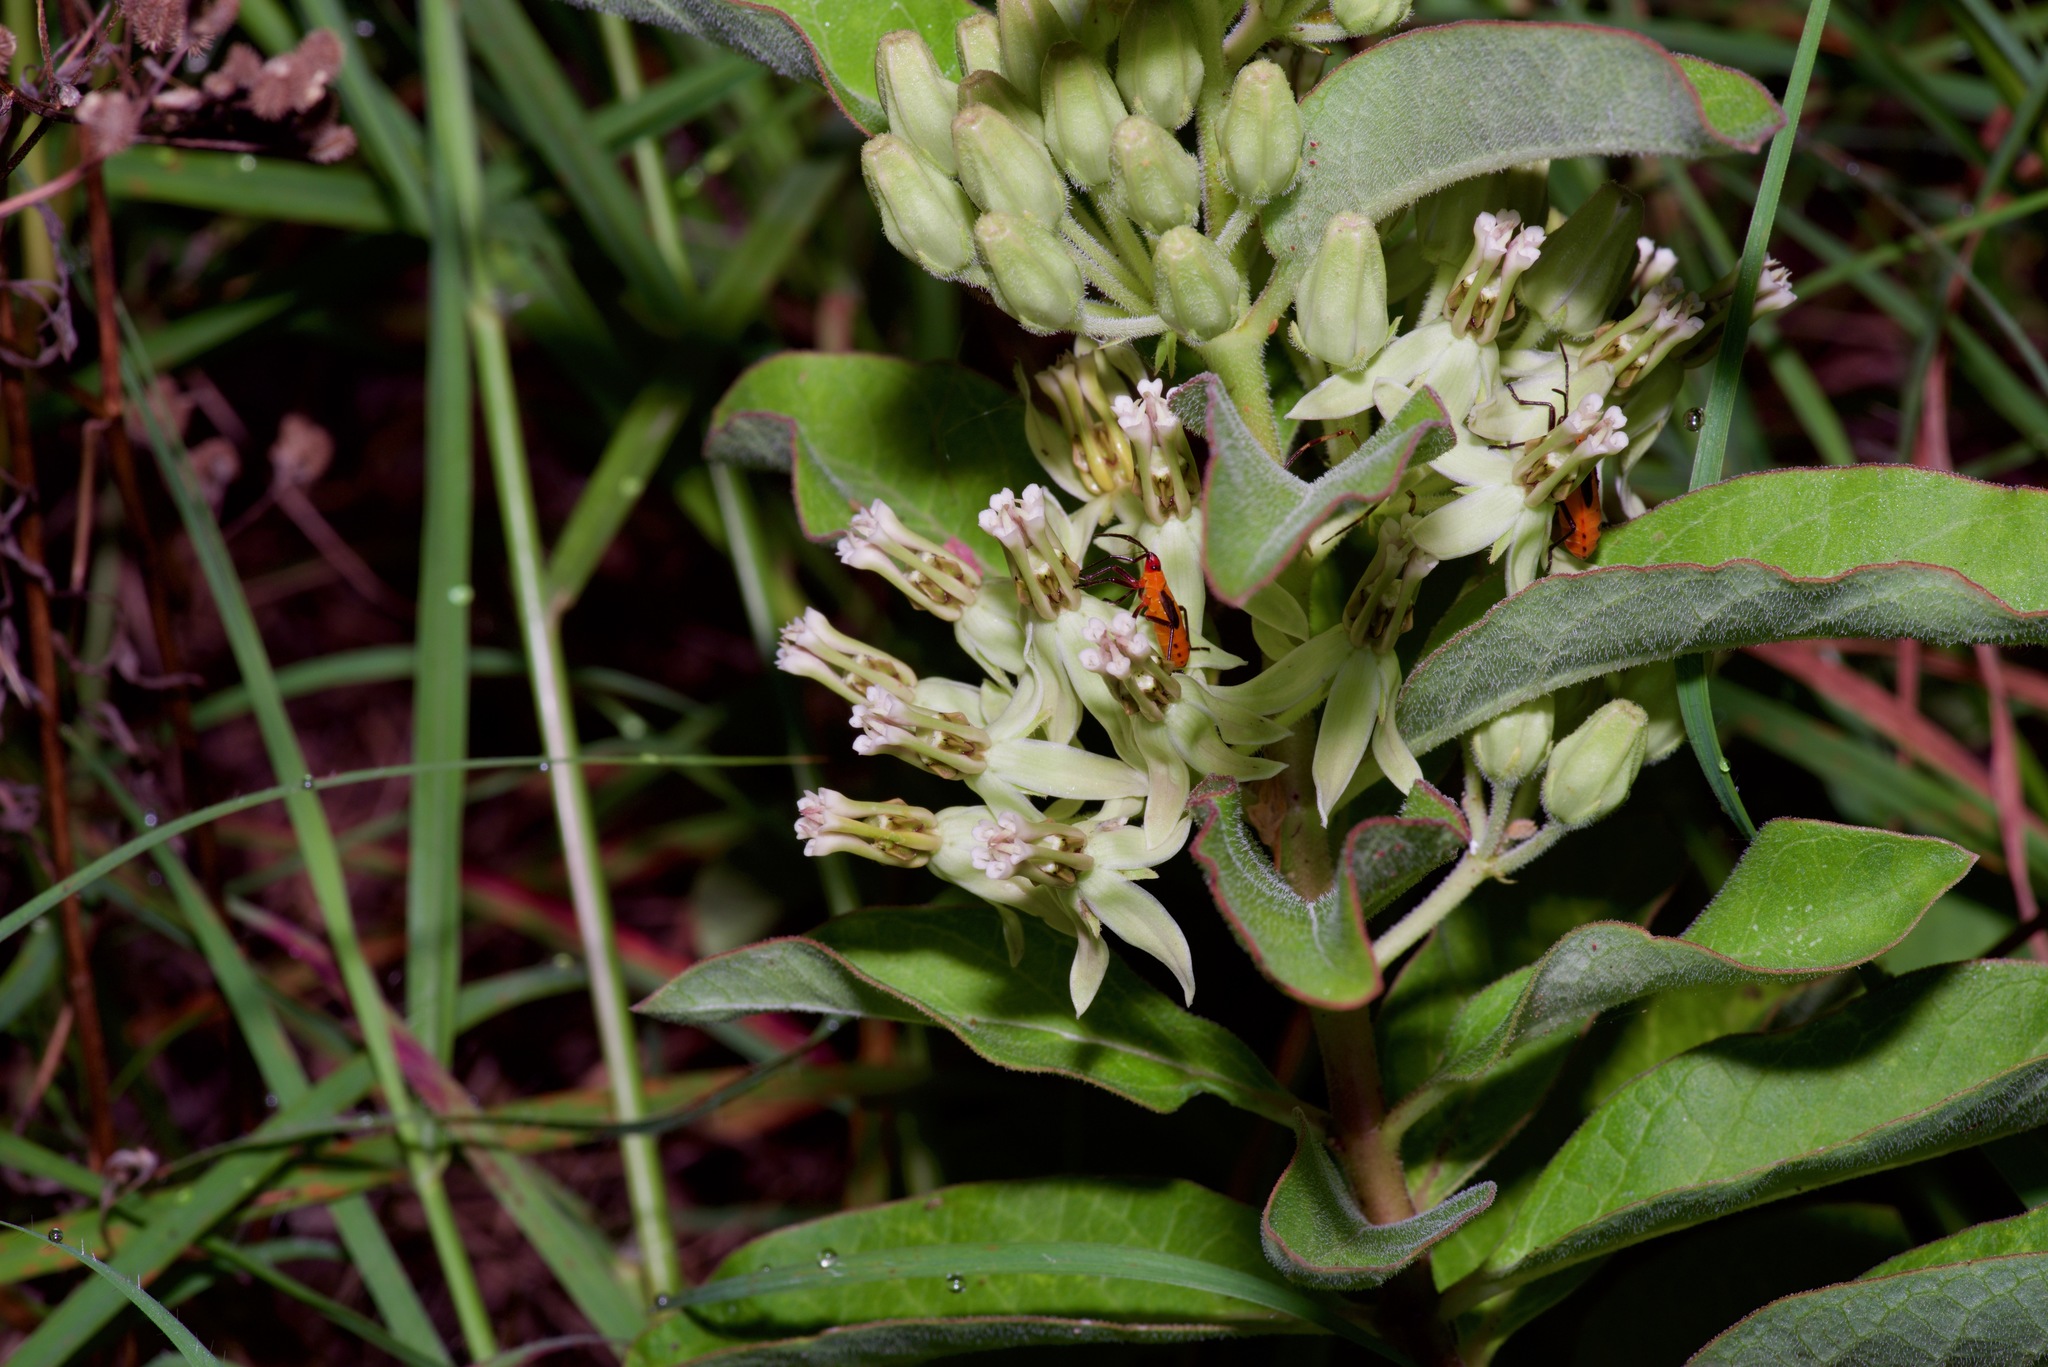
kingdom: Plantae
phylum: Tracheophyta
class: Magnoliopsida
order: Gentianales
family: Apocynaceae
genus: Asclepias
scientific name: Asclepias oenotheroides
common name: Zizotes milkweed
